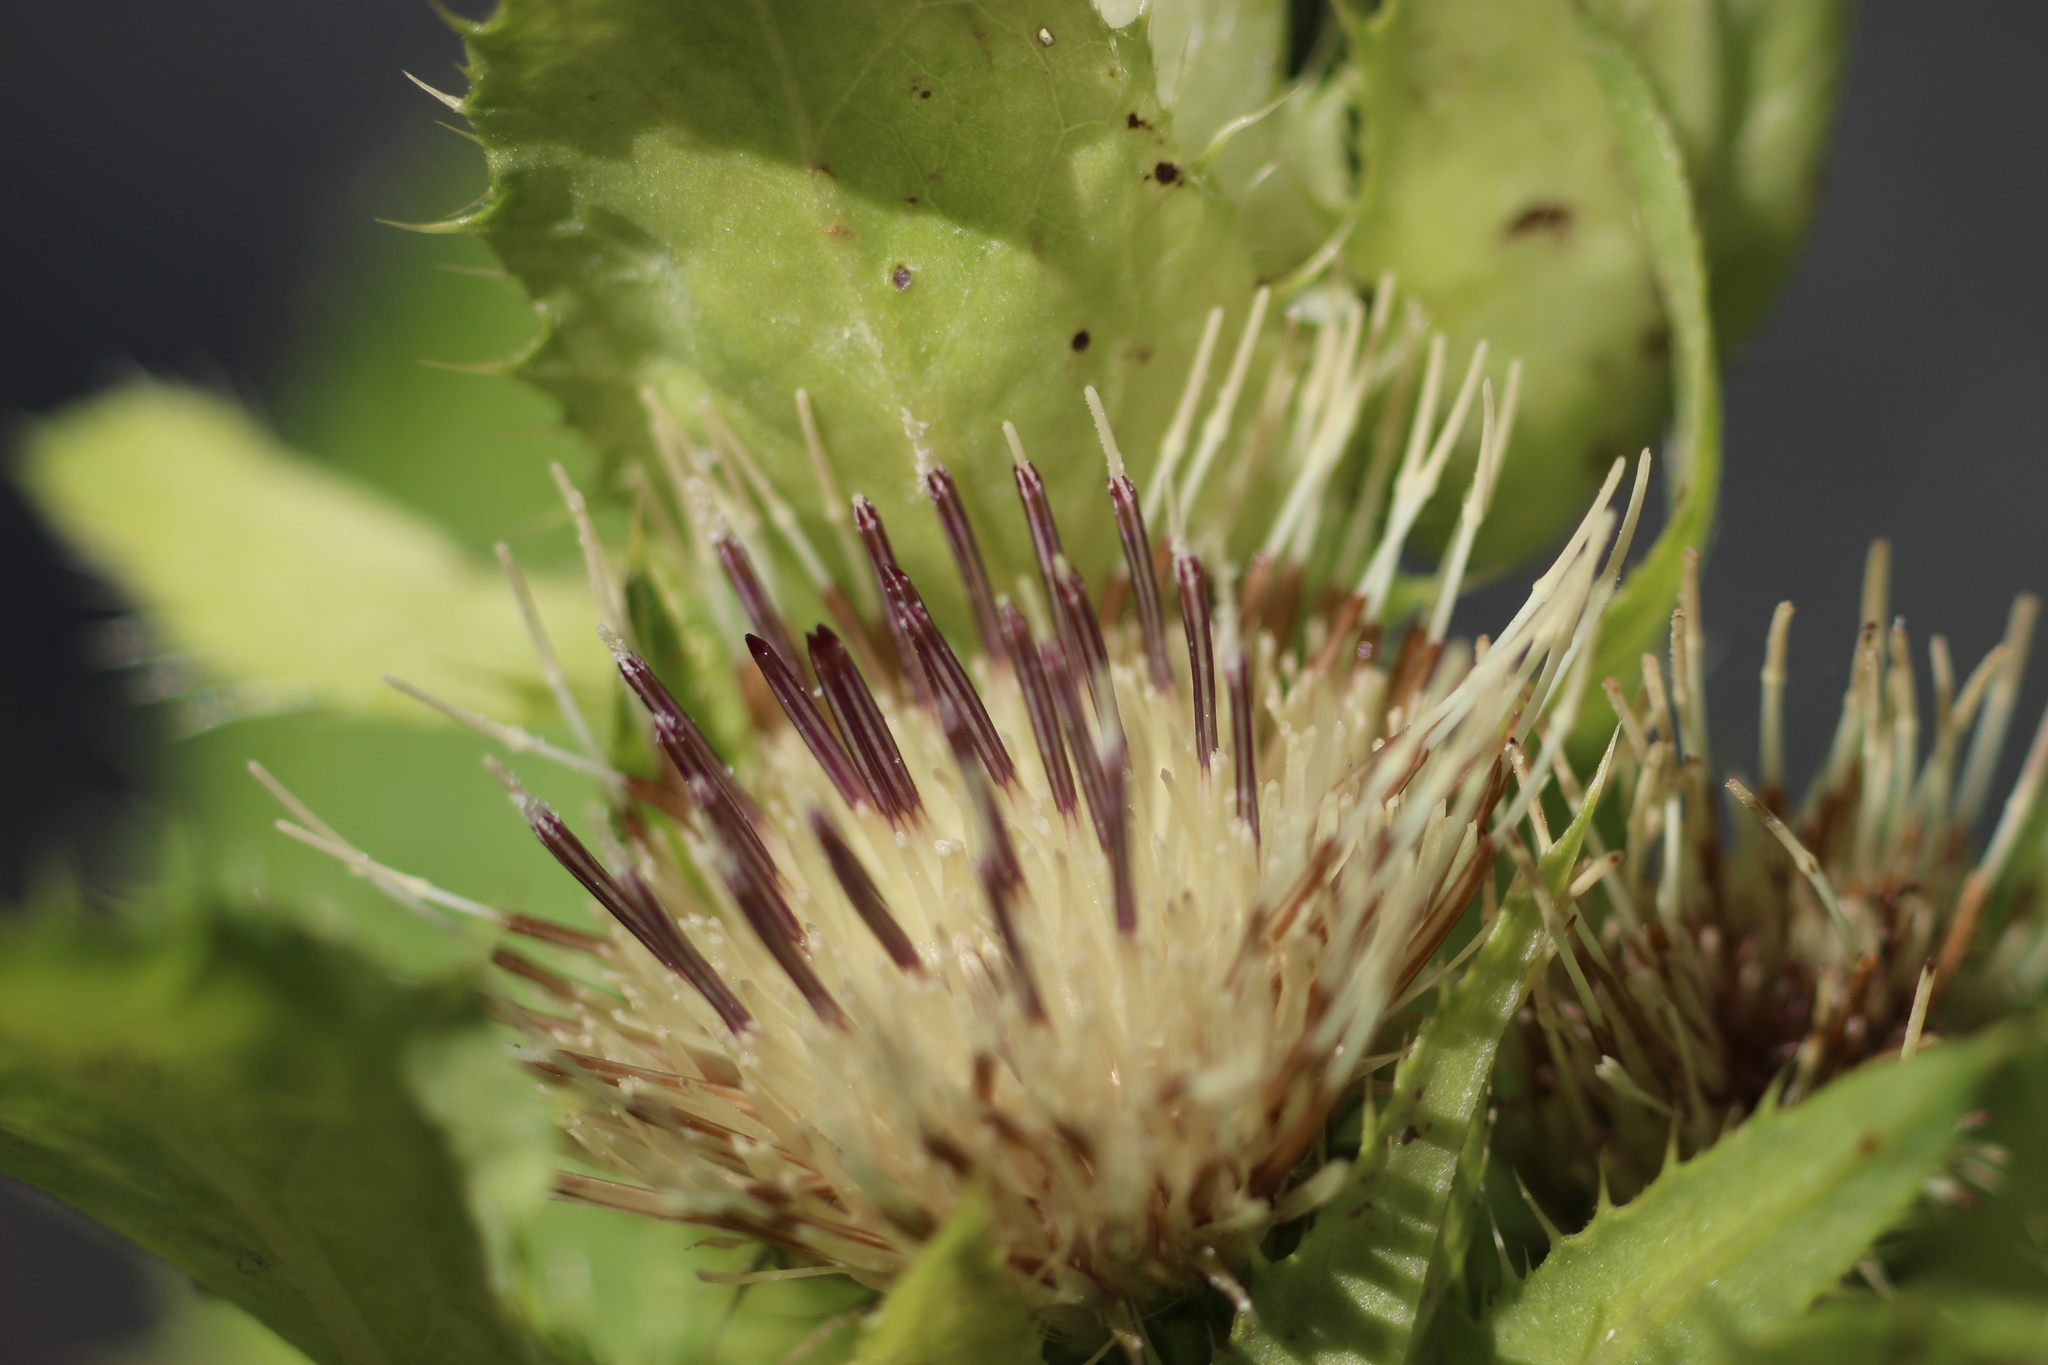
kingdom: Plantae
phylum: Tracheophyta
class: Magnoliopsida
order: Asterales
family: Asteraceae
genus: Cirsium
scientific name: Cirsium oleraceum
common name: Cabbage thistle
